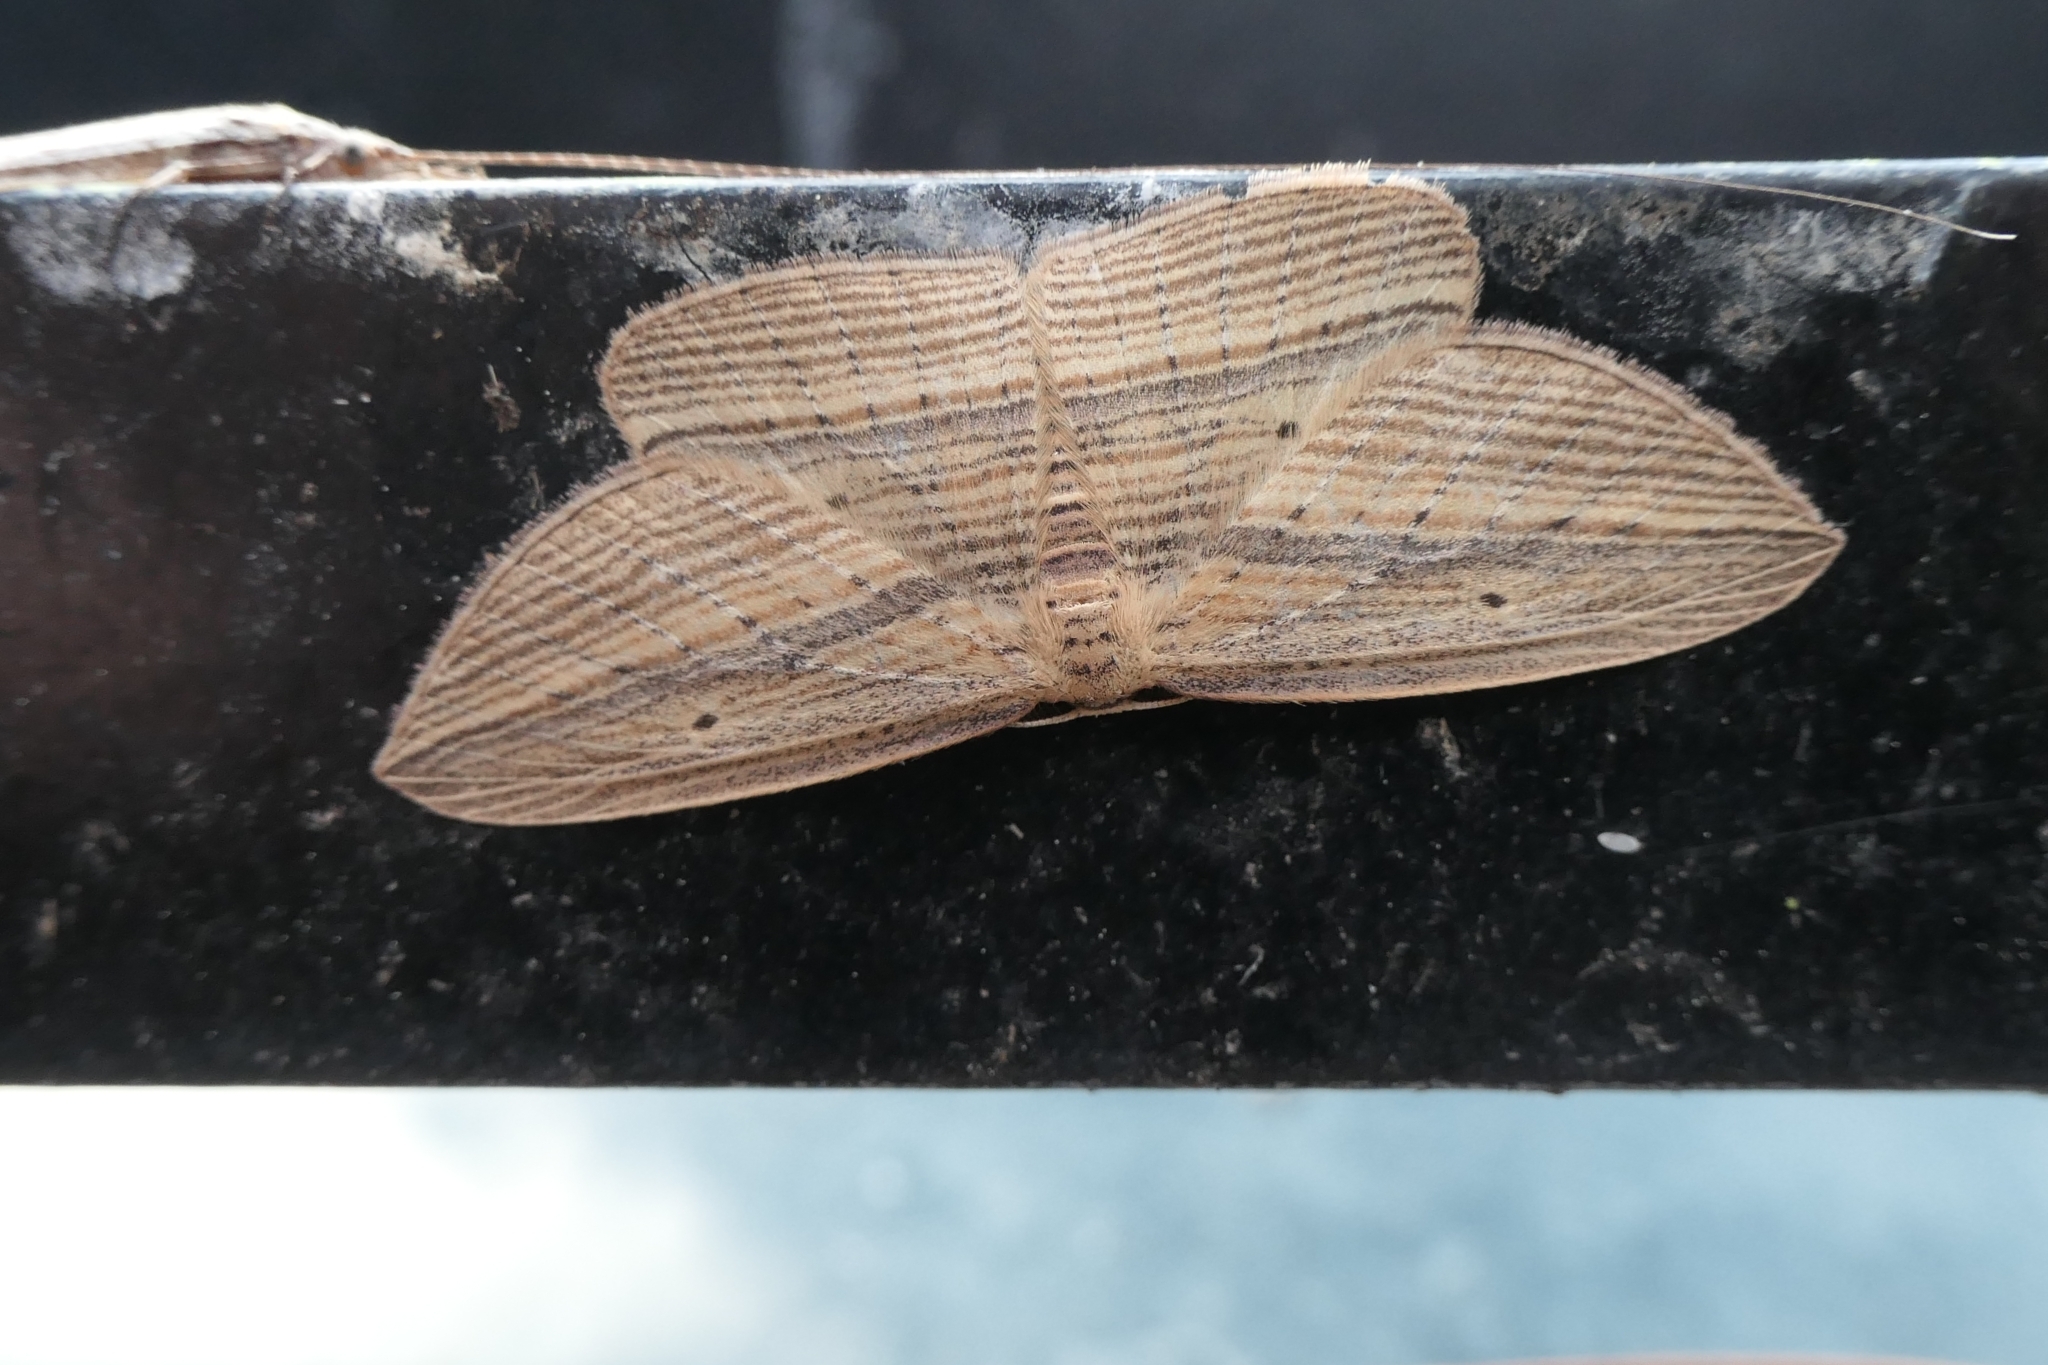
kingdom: Animalia
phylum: Arthropoda
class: Insecta
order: Lepidoptera
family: Geometridae
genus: Epiphryne
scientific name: Epiphryne verriculata
